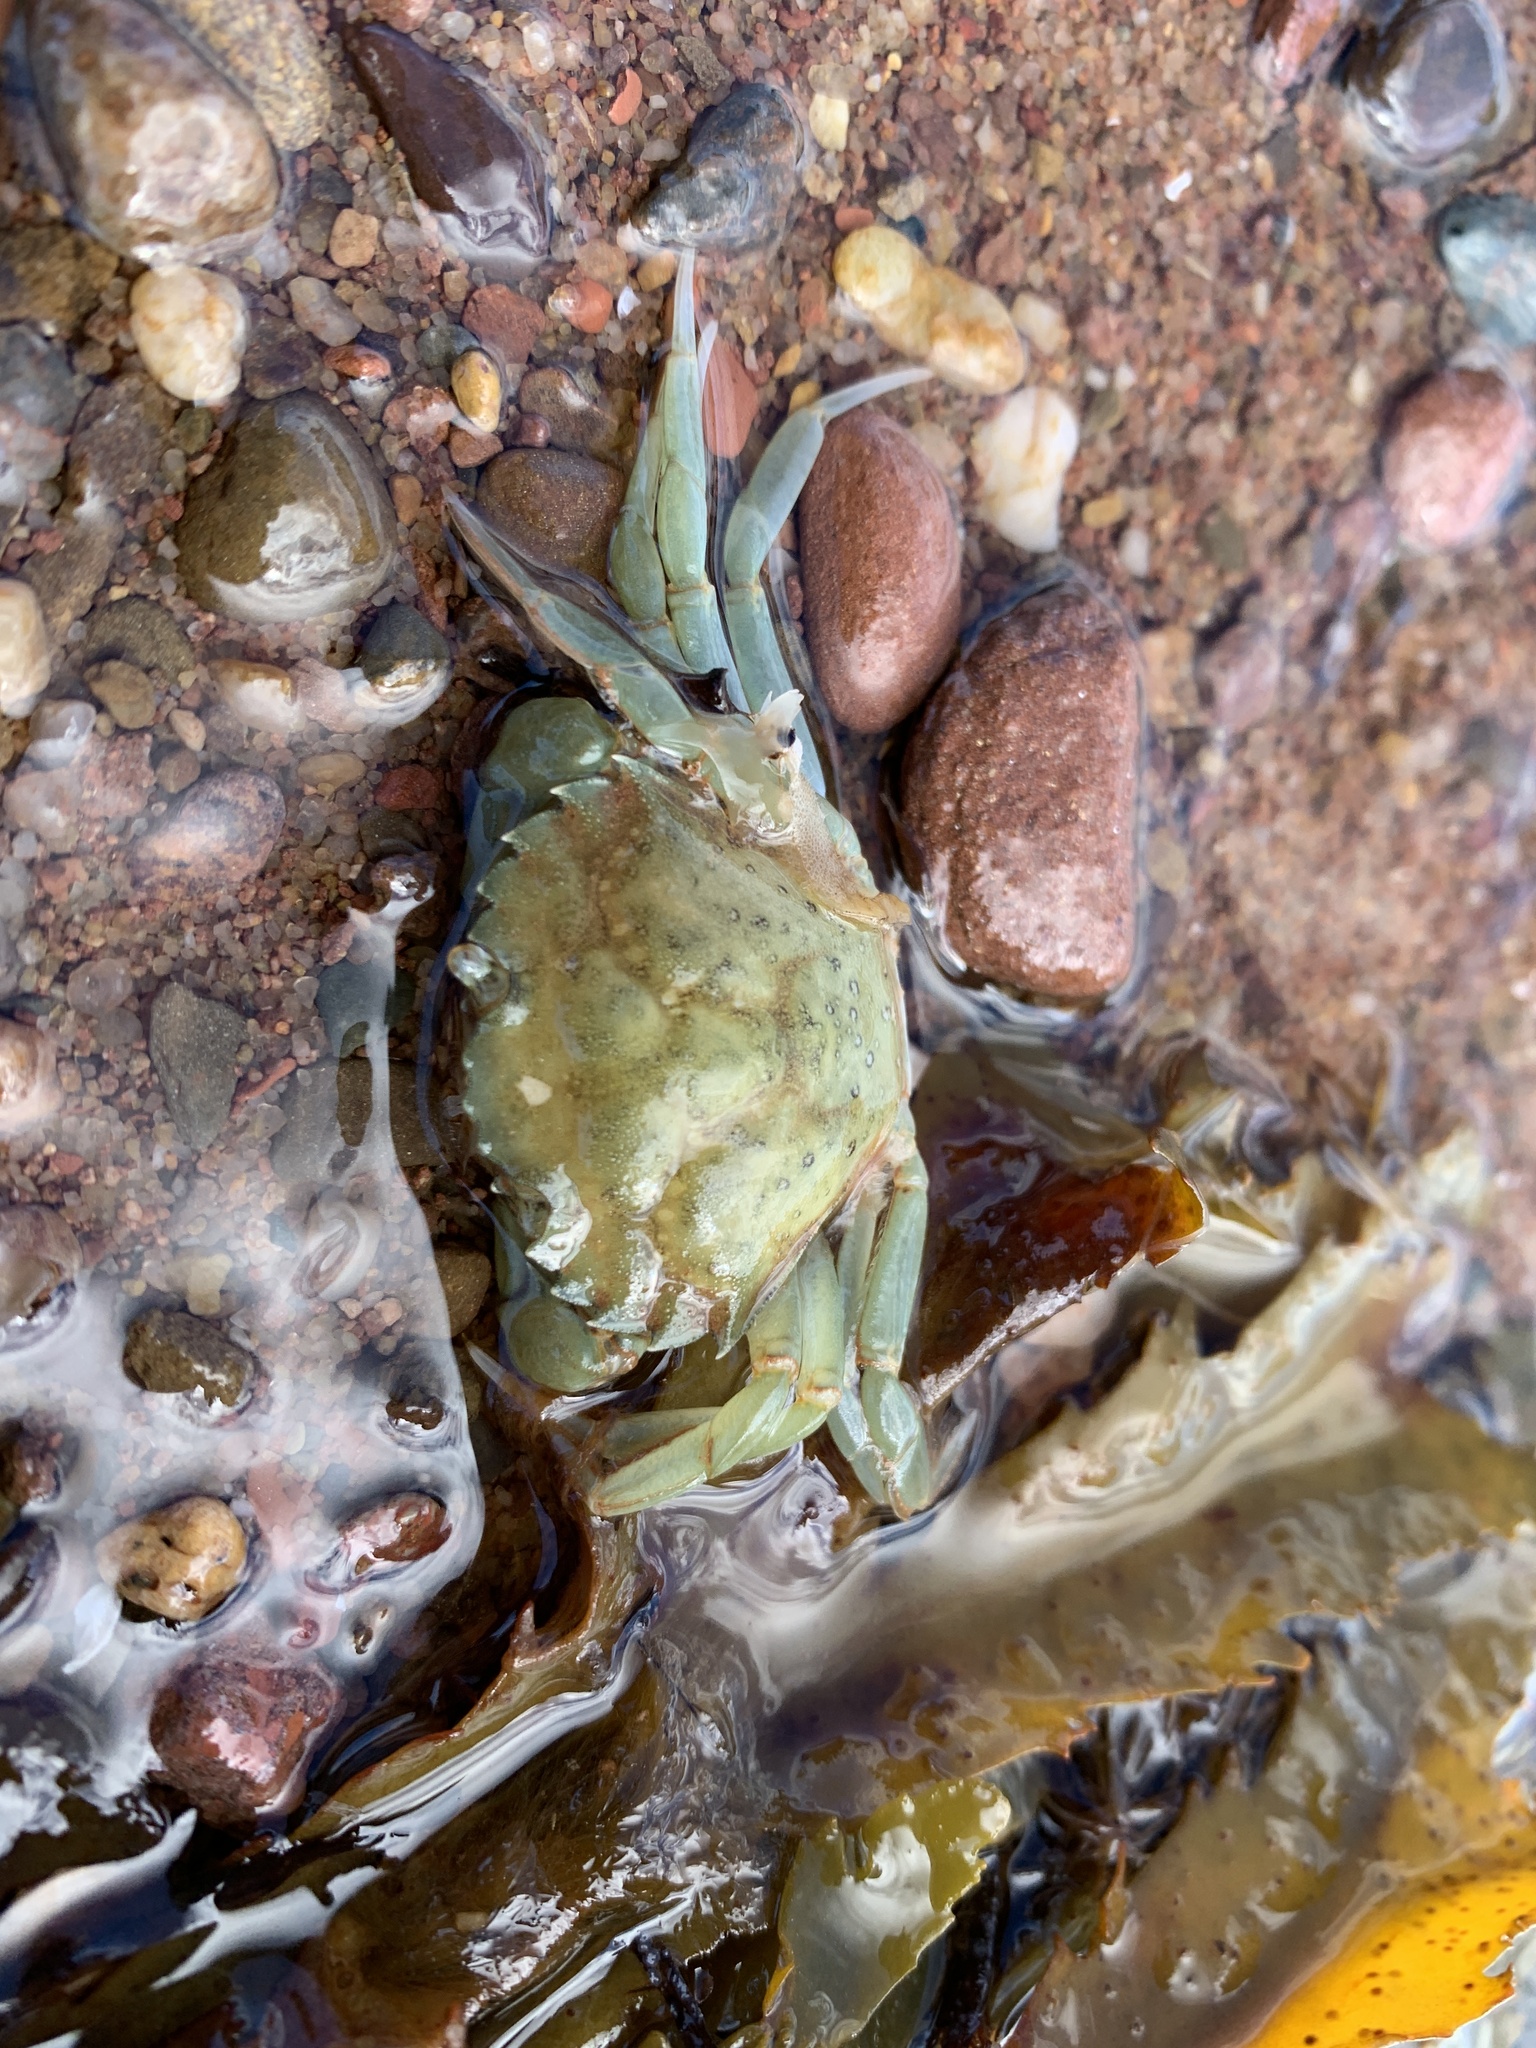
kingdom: Animalia
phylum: Arthropoda
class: Malacostraca
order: Decapoda
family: Carcinidae
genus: Carcinus
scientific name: Carcinus maenas
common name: European green crab
